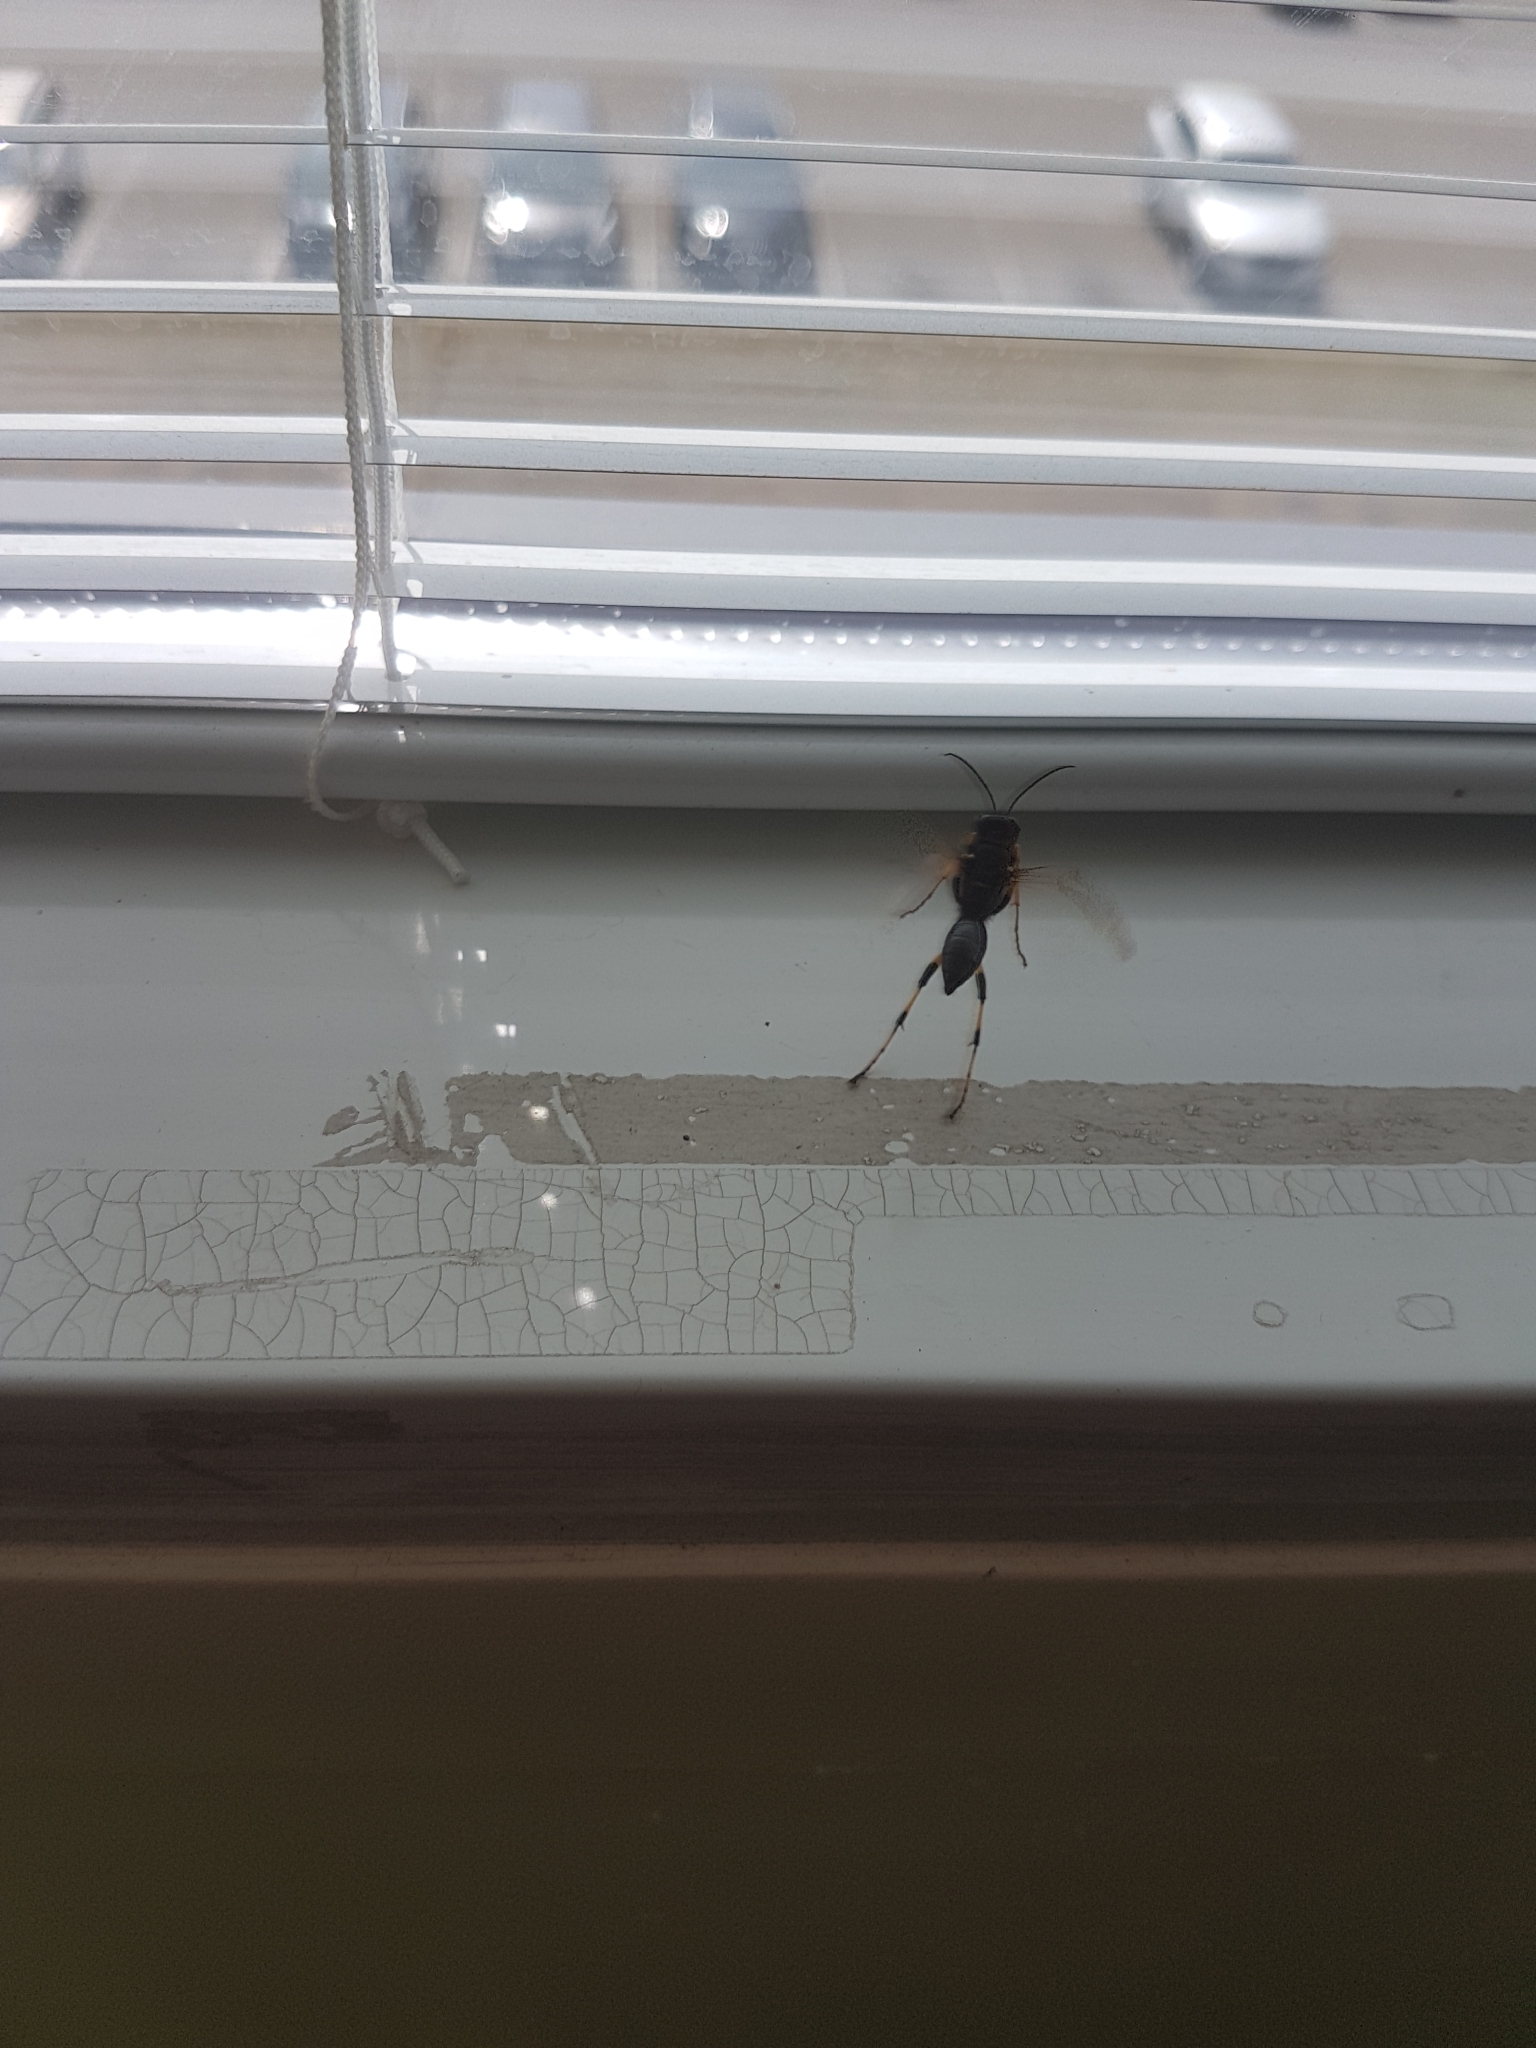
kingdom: Animalia
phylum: Arthropoda
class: Insecta
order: Hymenoptera
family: Sphecidae
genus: Sceliphron
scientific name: Sceliphron destillatorium
